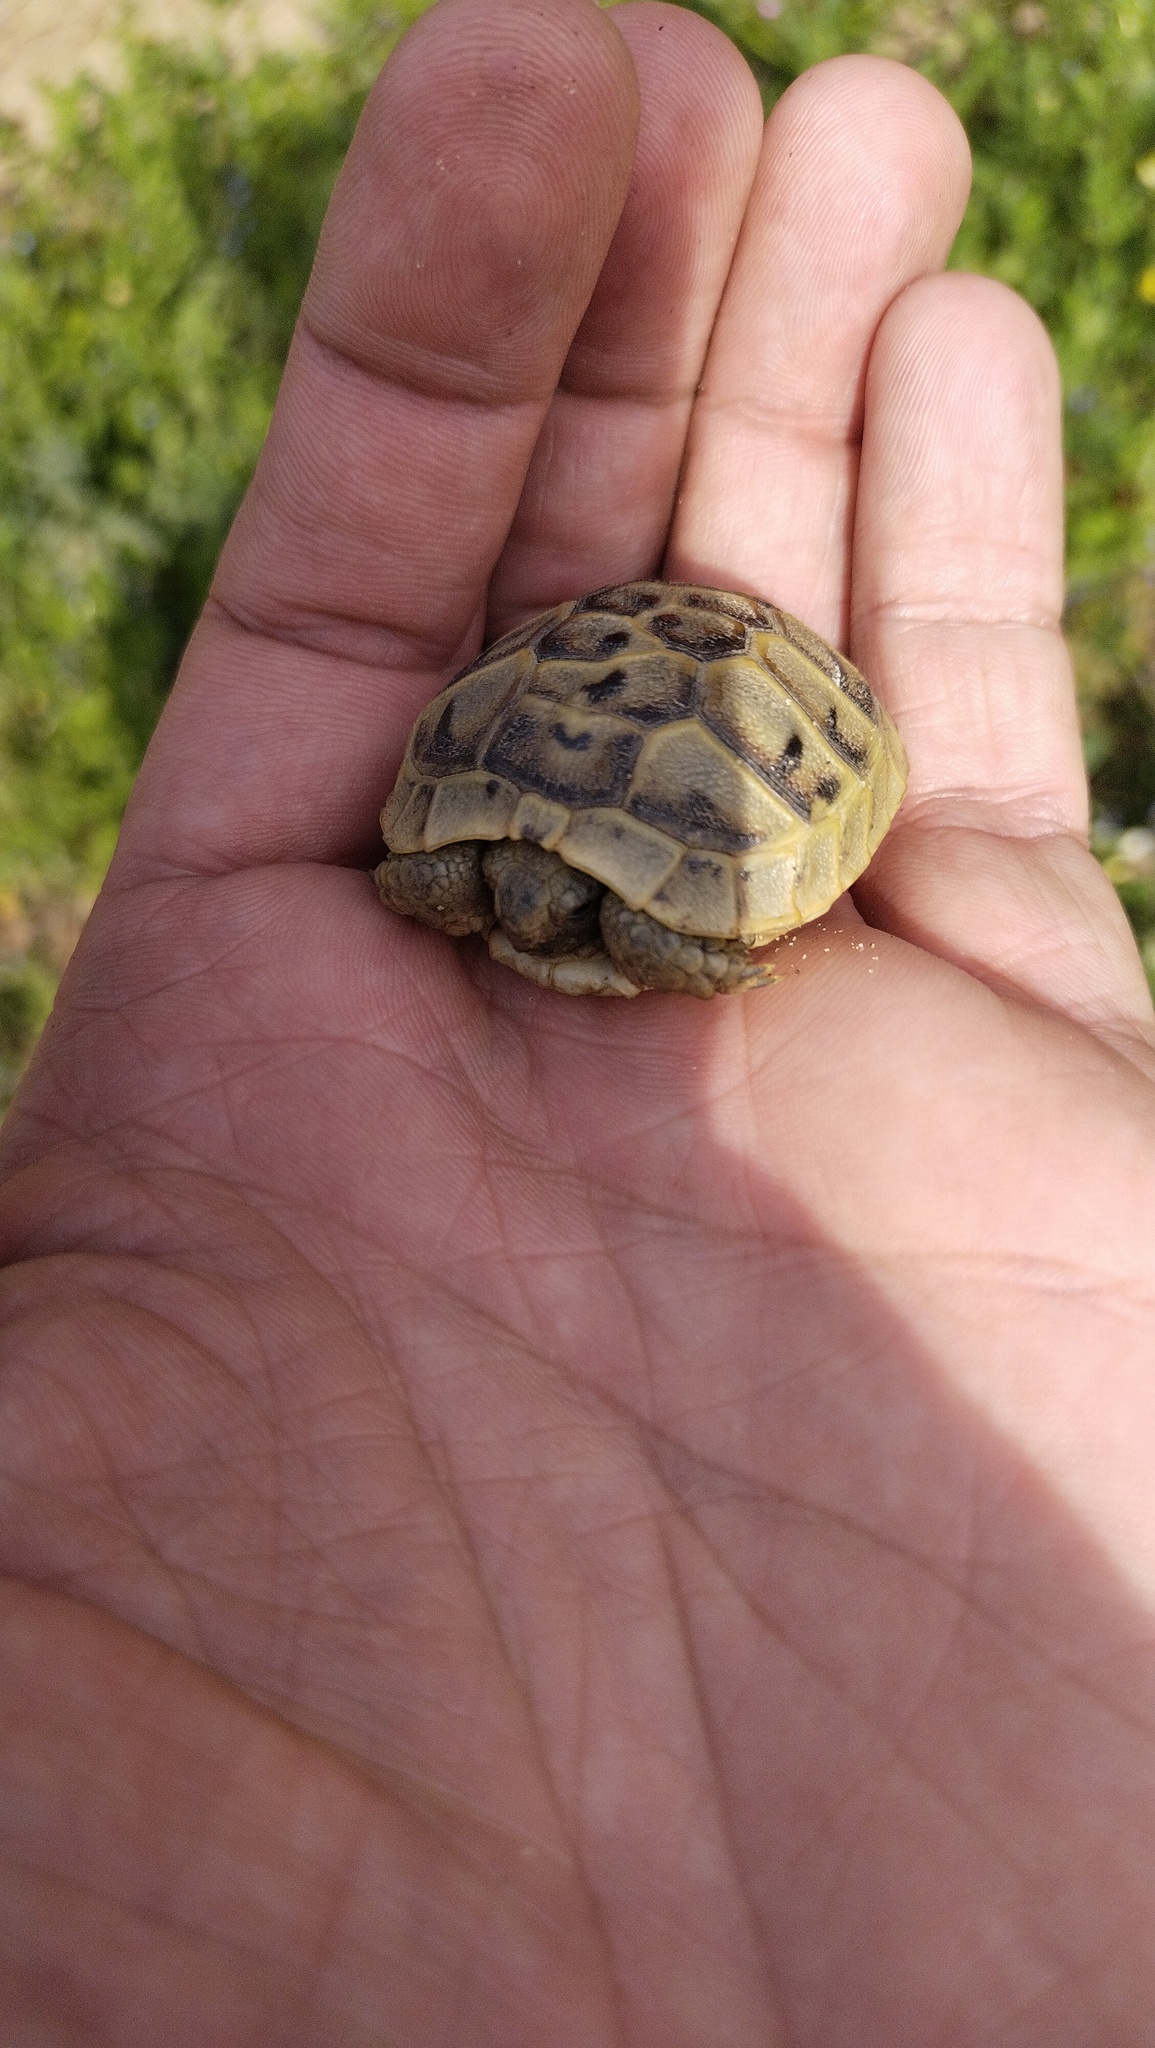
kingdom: Animalia
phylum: Chordata
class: Testudines
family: Testudinidae
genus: Testudo
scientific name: Testudo graeca
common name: Common tortoise
